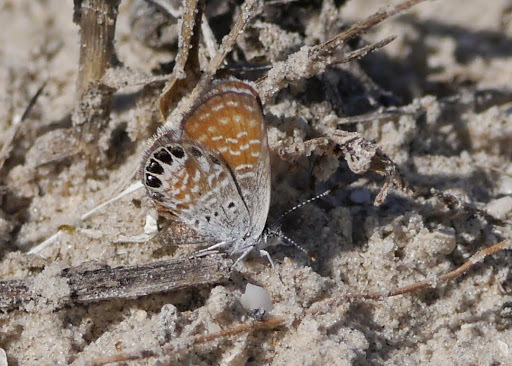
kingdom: Animalia
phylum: Arthropoda
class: Insecta
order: Lepidoptera
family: Lycaenidae
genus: Brephidium
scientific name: Brephidium exilis
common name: Pygmy blue
